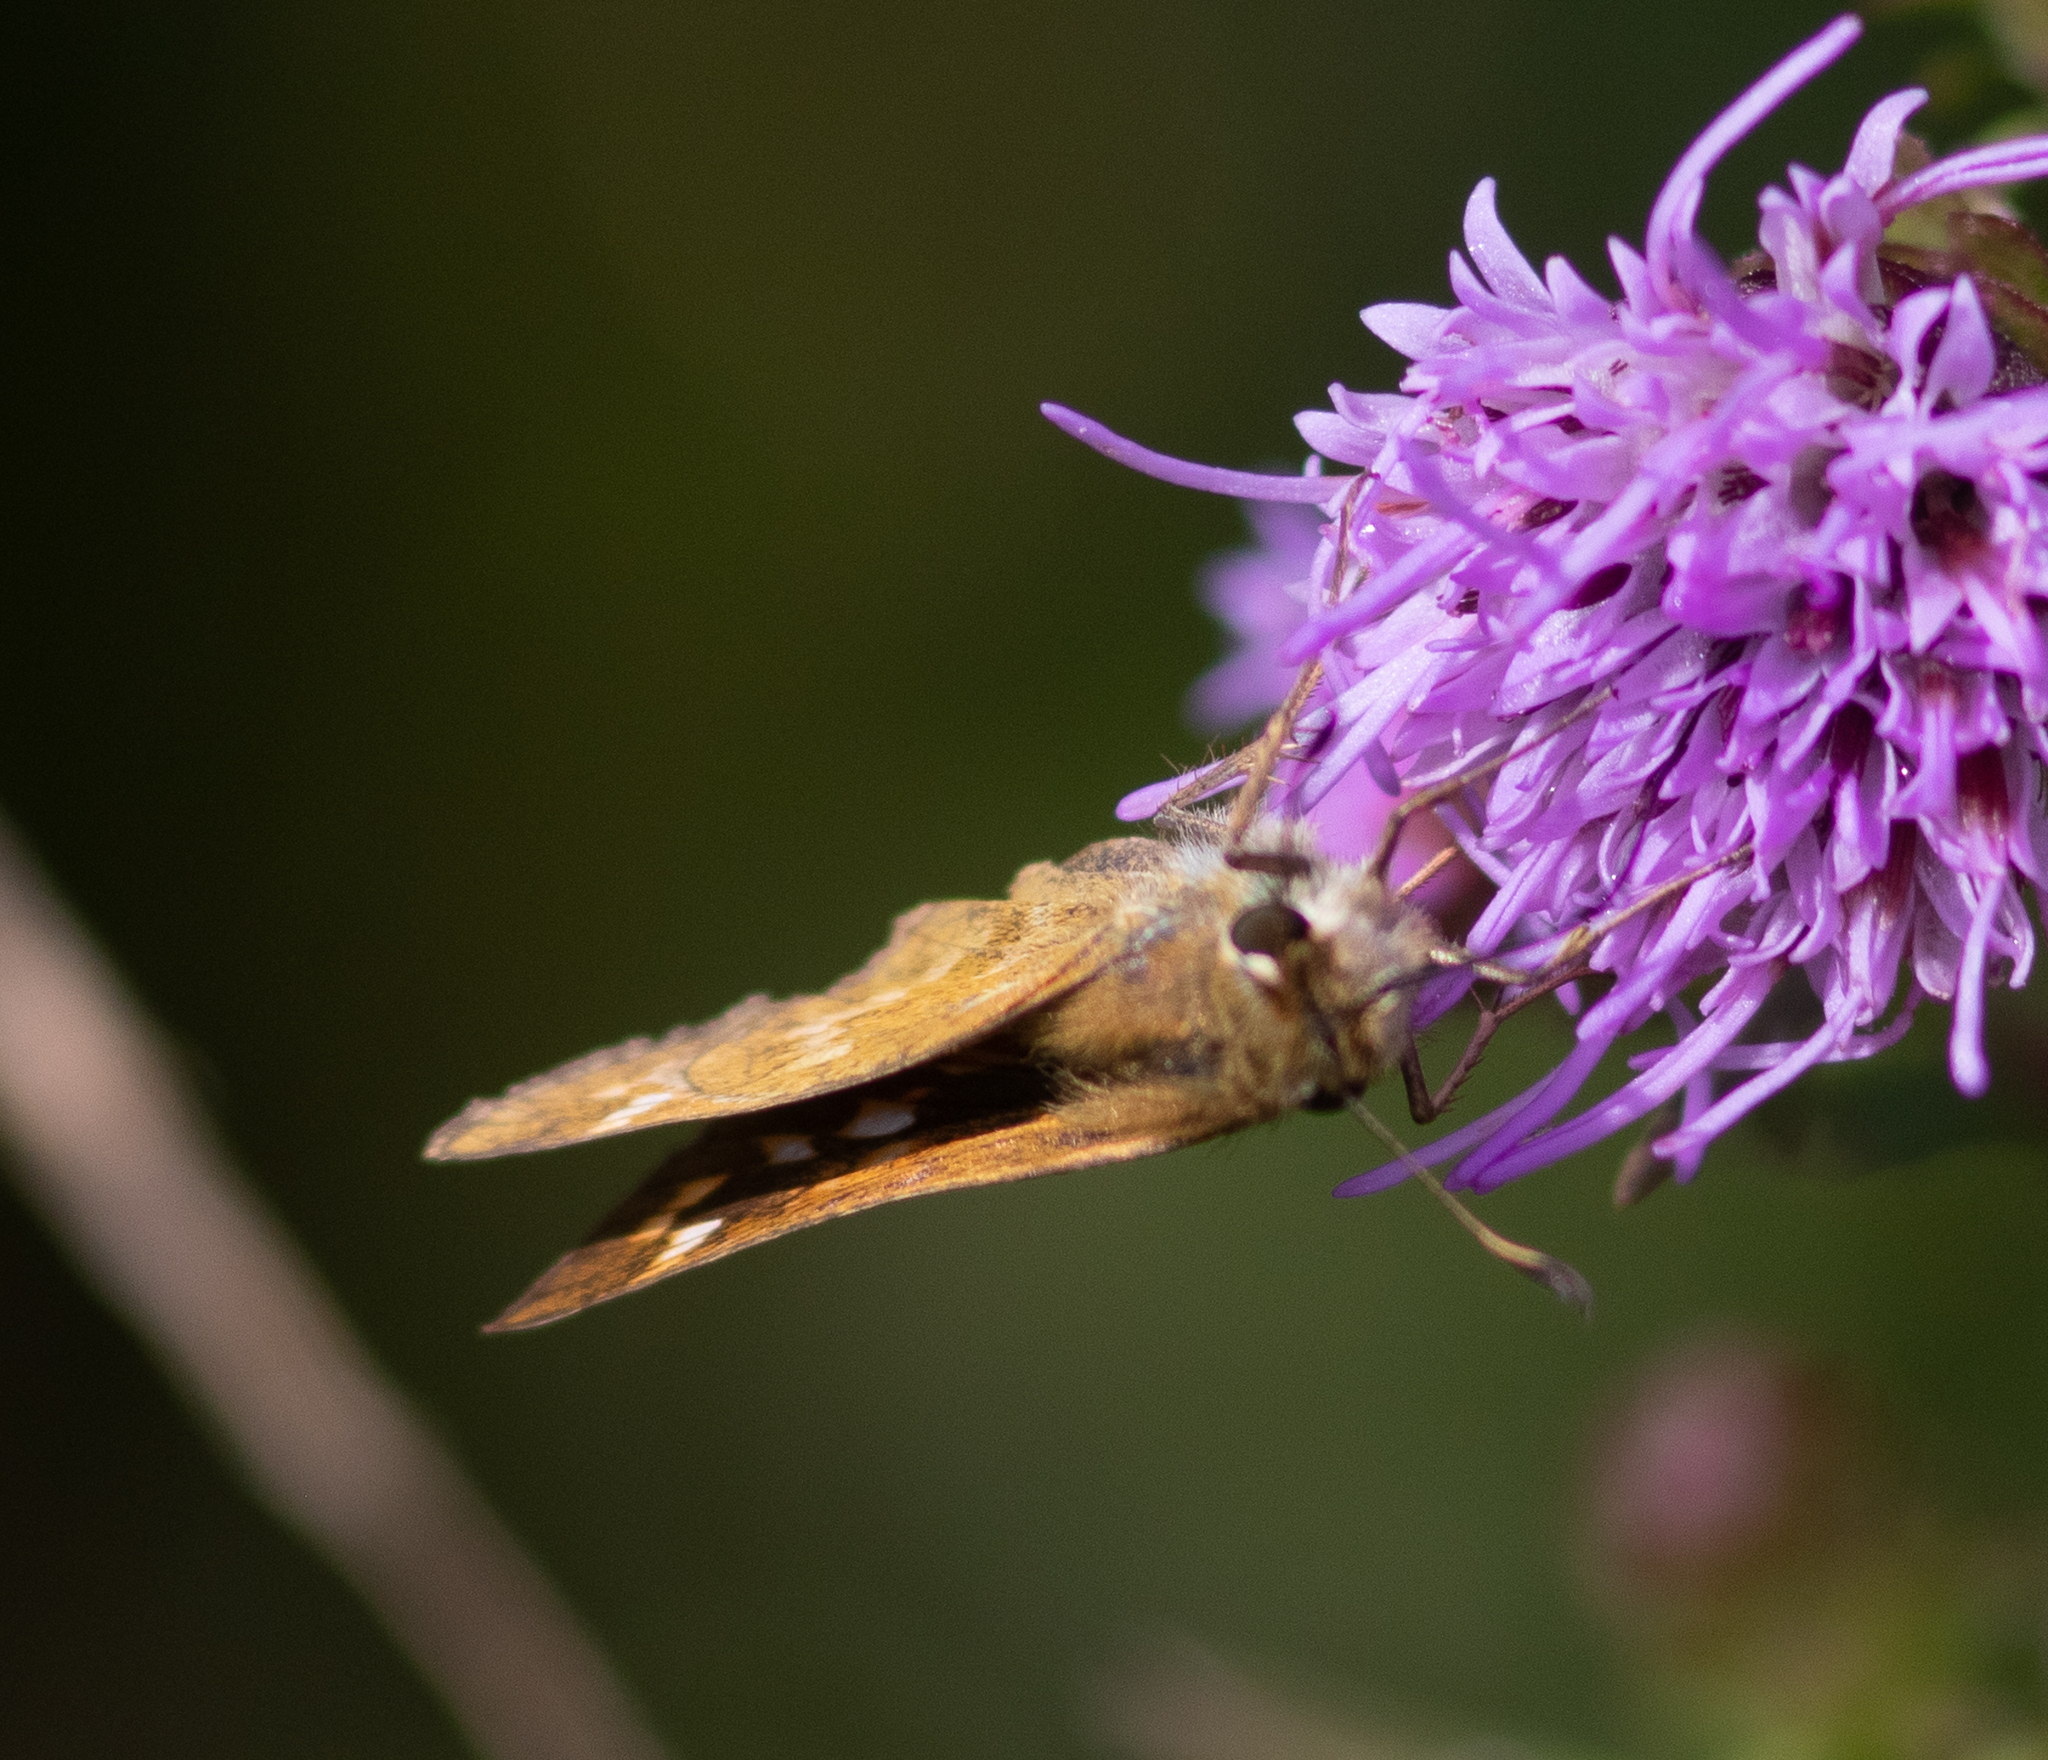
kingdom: Animalia
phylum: Arthropoda
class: Insecta
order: Lepidoptera
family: Hesperiidae
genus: Atalopedes
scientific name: Atalopedes
